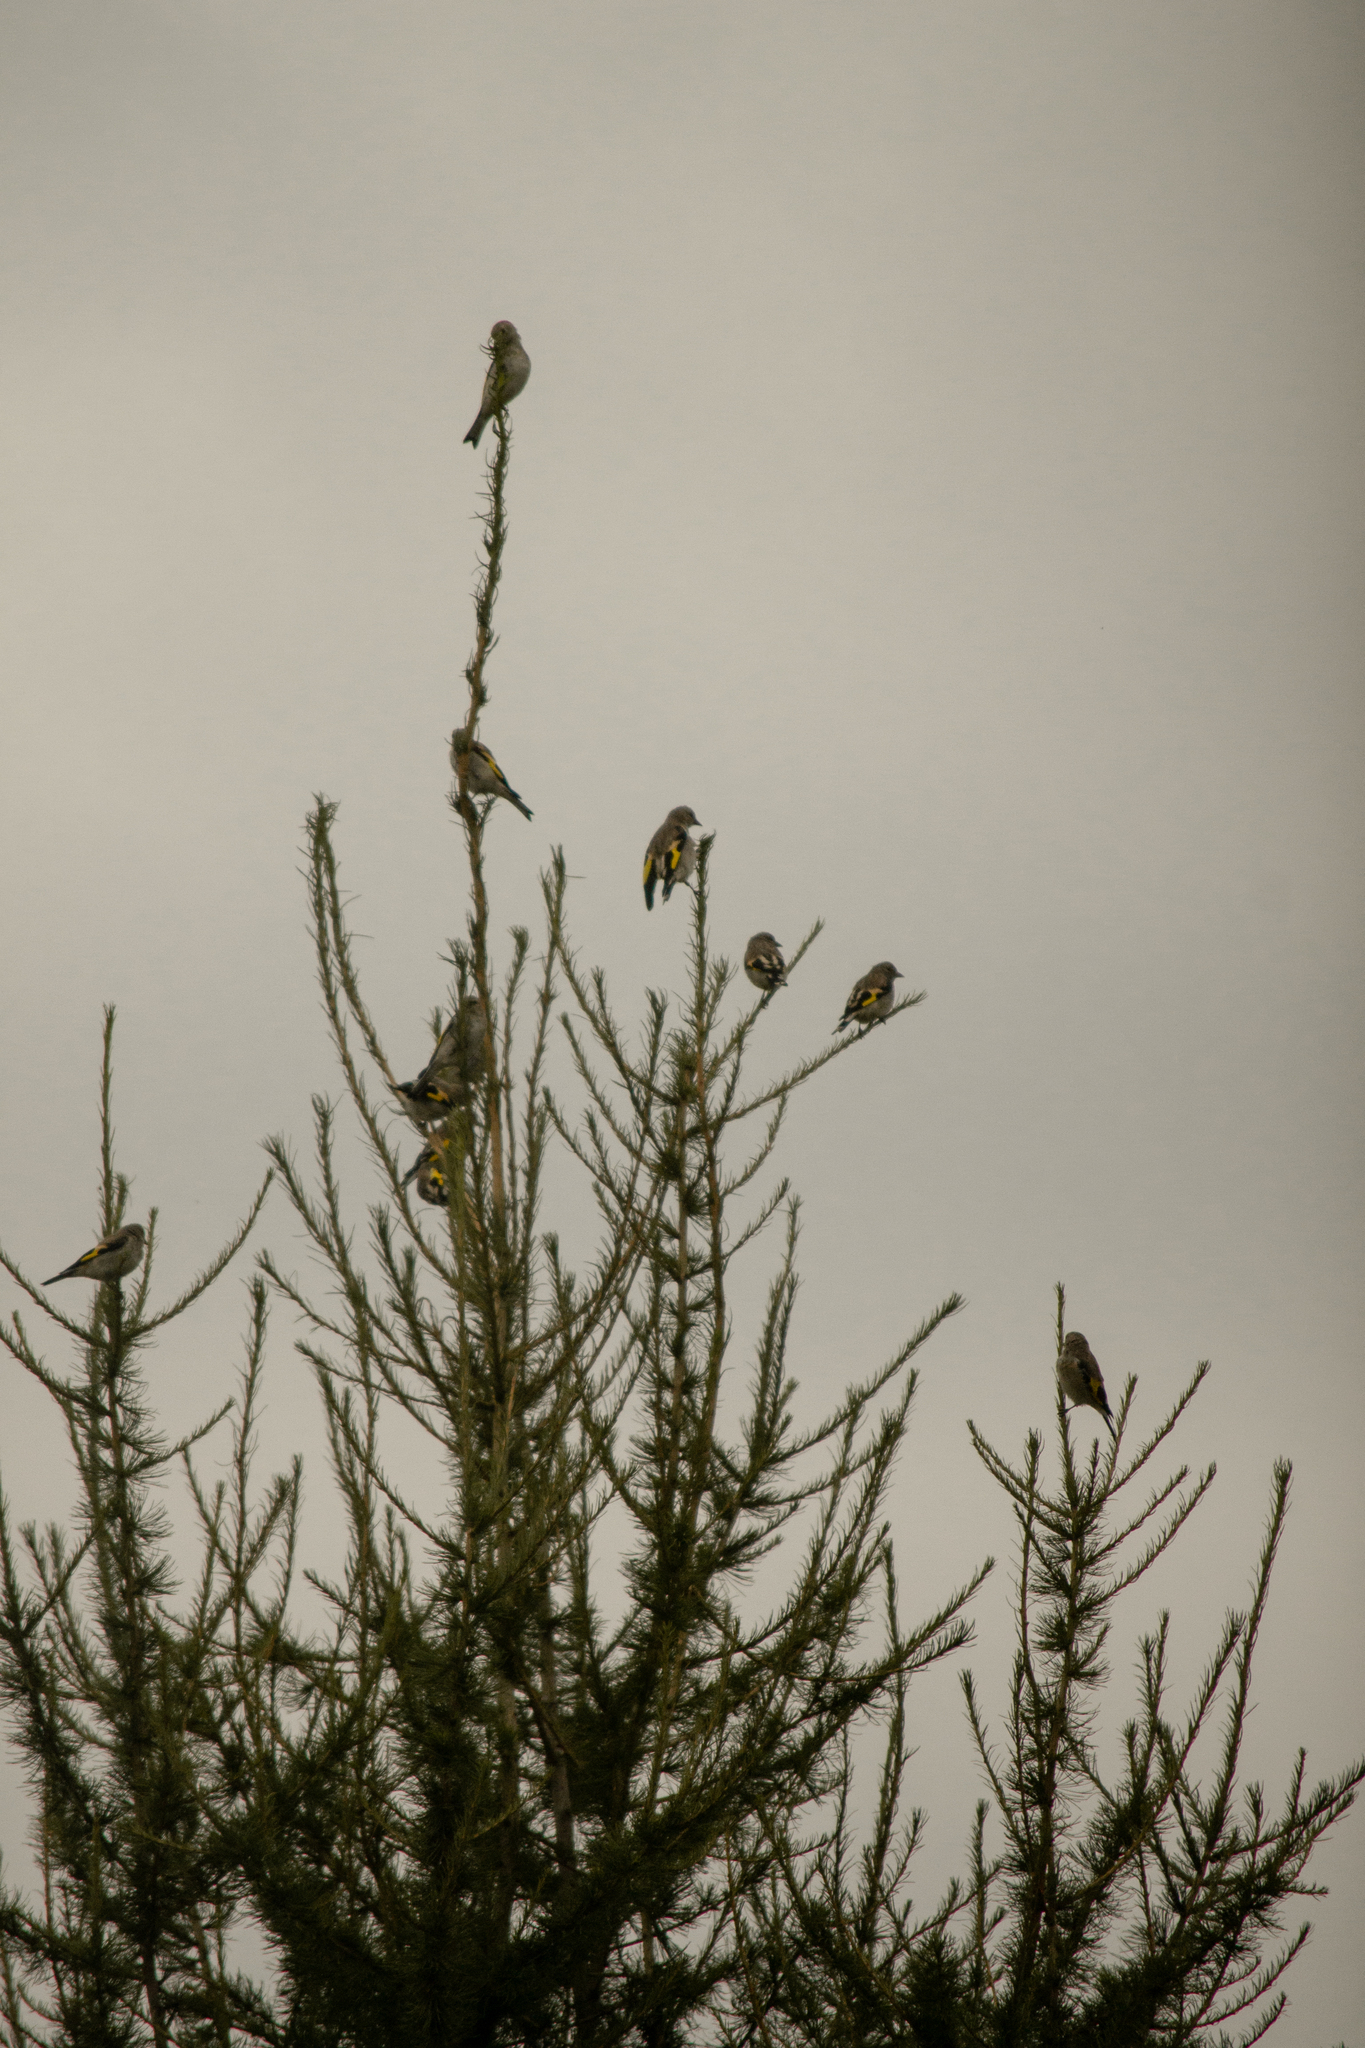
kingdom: Animalia
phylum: Chordata
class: Aves
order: Passeriformes
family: Fringillidae
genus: Carduelis
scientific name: Carduelis carduelis
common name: European goldfinch
